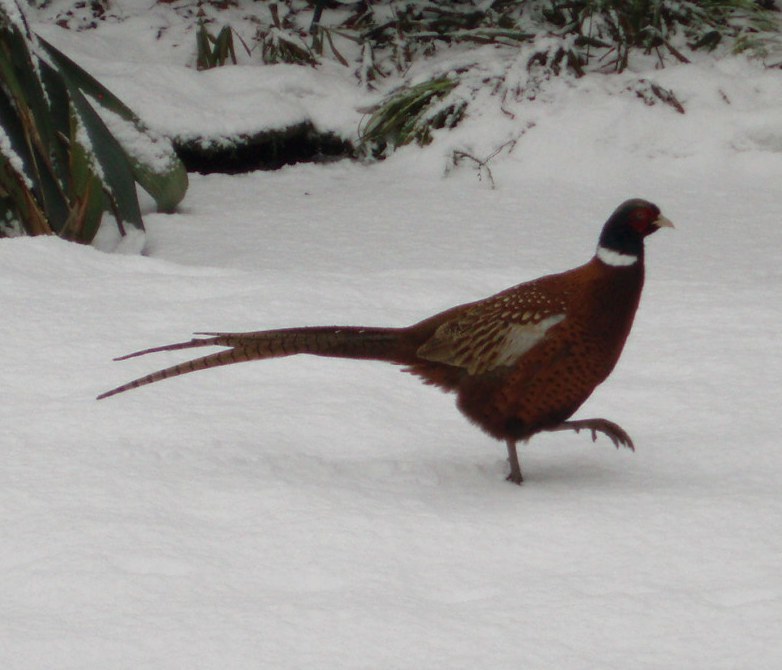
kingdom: Animalia
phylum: Chordata
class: Aves
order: Galliformes
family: Phasianidae
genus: Phasianus
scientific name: Phasianus colchicus
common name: Common pheasant
